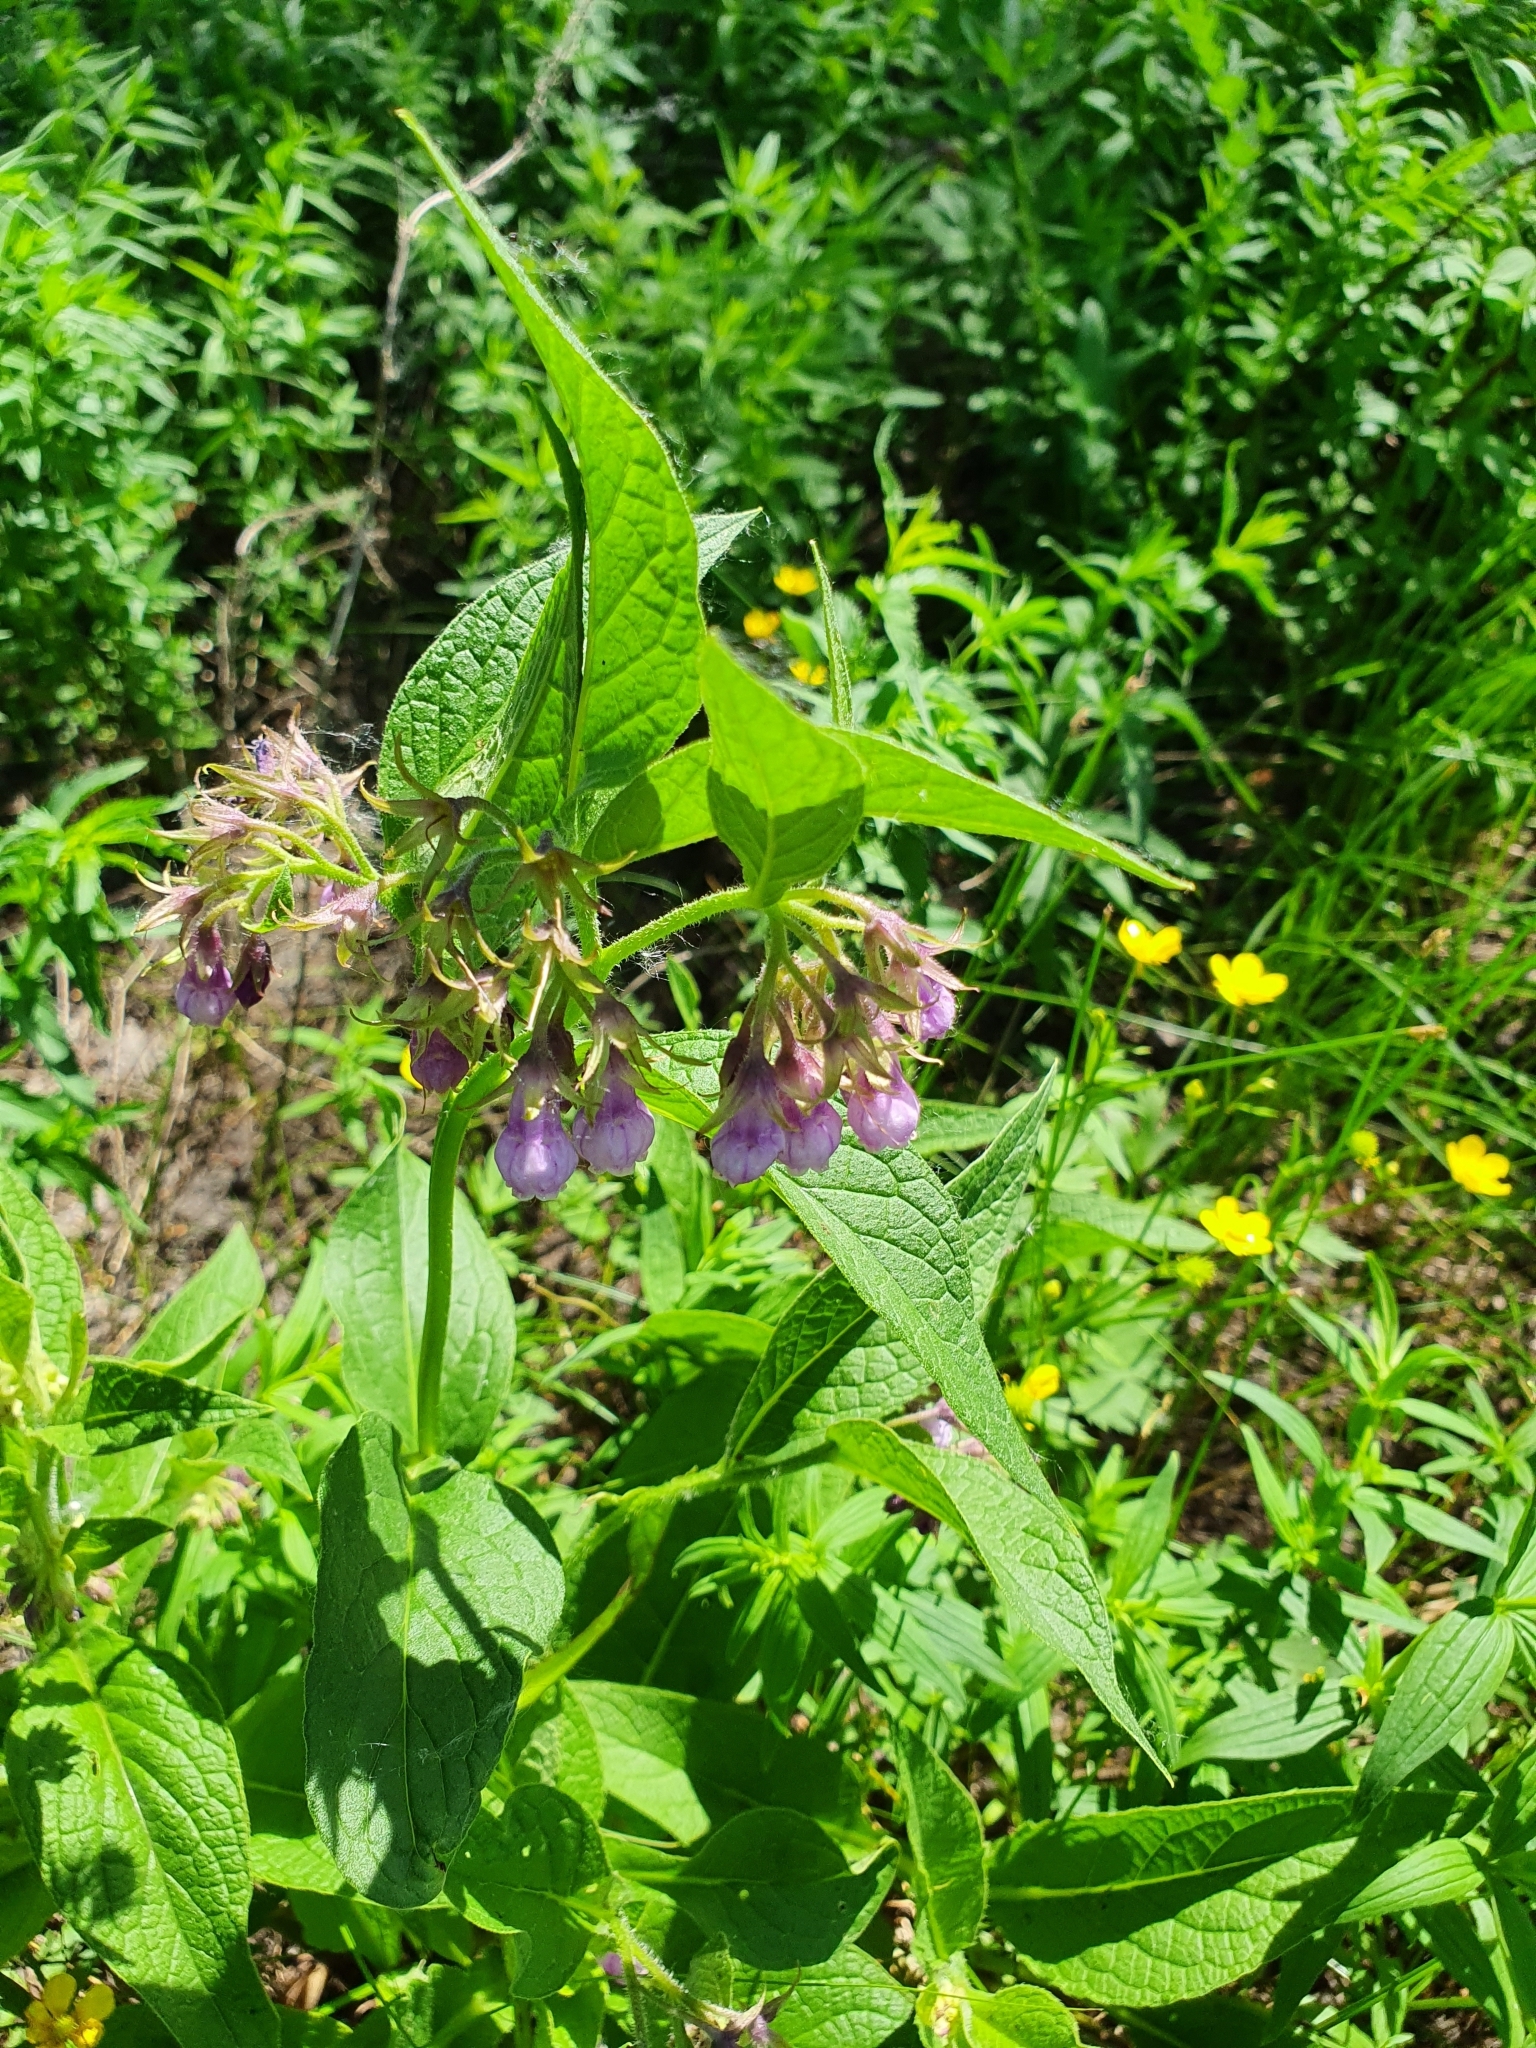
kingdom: Plantae
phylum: Tracheophyta
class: Magnoliopsida
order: Boraginales
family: Boraginaceae
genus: Symphytum
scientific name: Symphytum officinale
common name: Common comfrey
